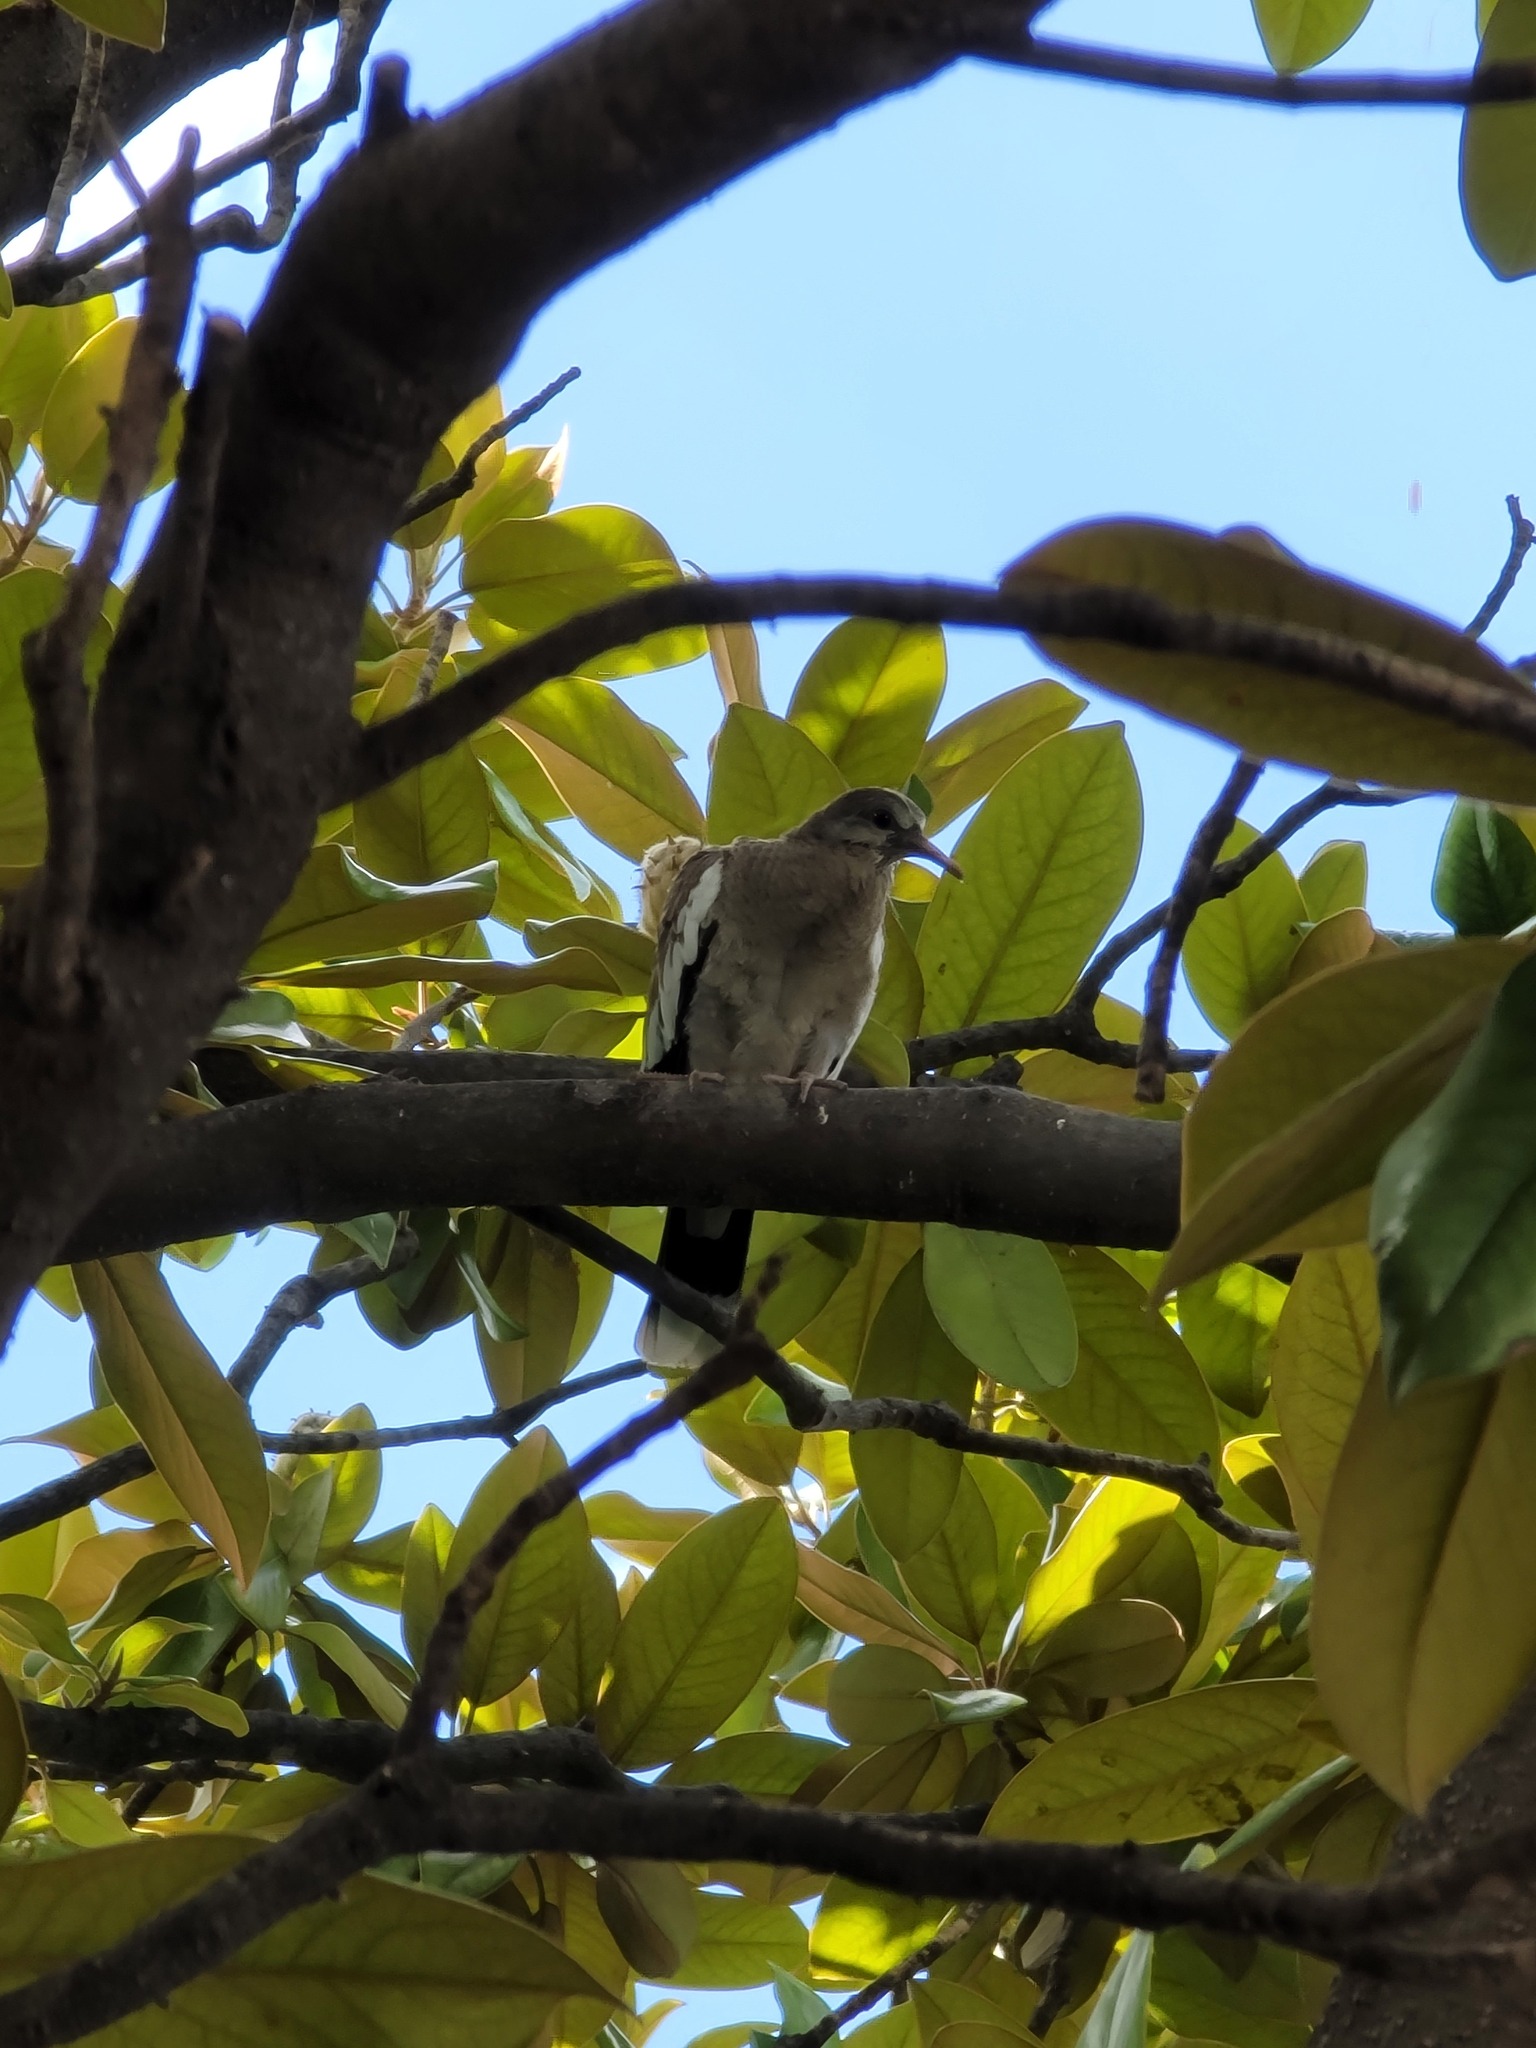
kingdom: Animalia
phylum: Chordata
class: Aves
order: Columbiformes
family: Columbidae
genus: Zenaida
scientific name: Zenaida asiatica
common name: White-winged dove
